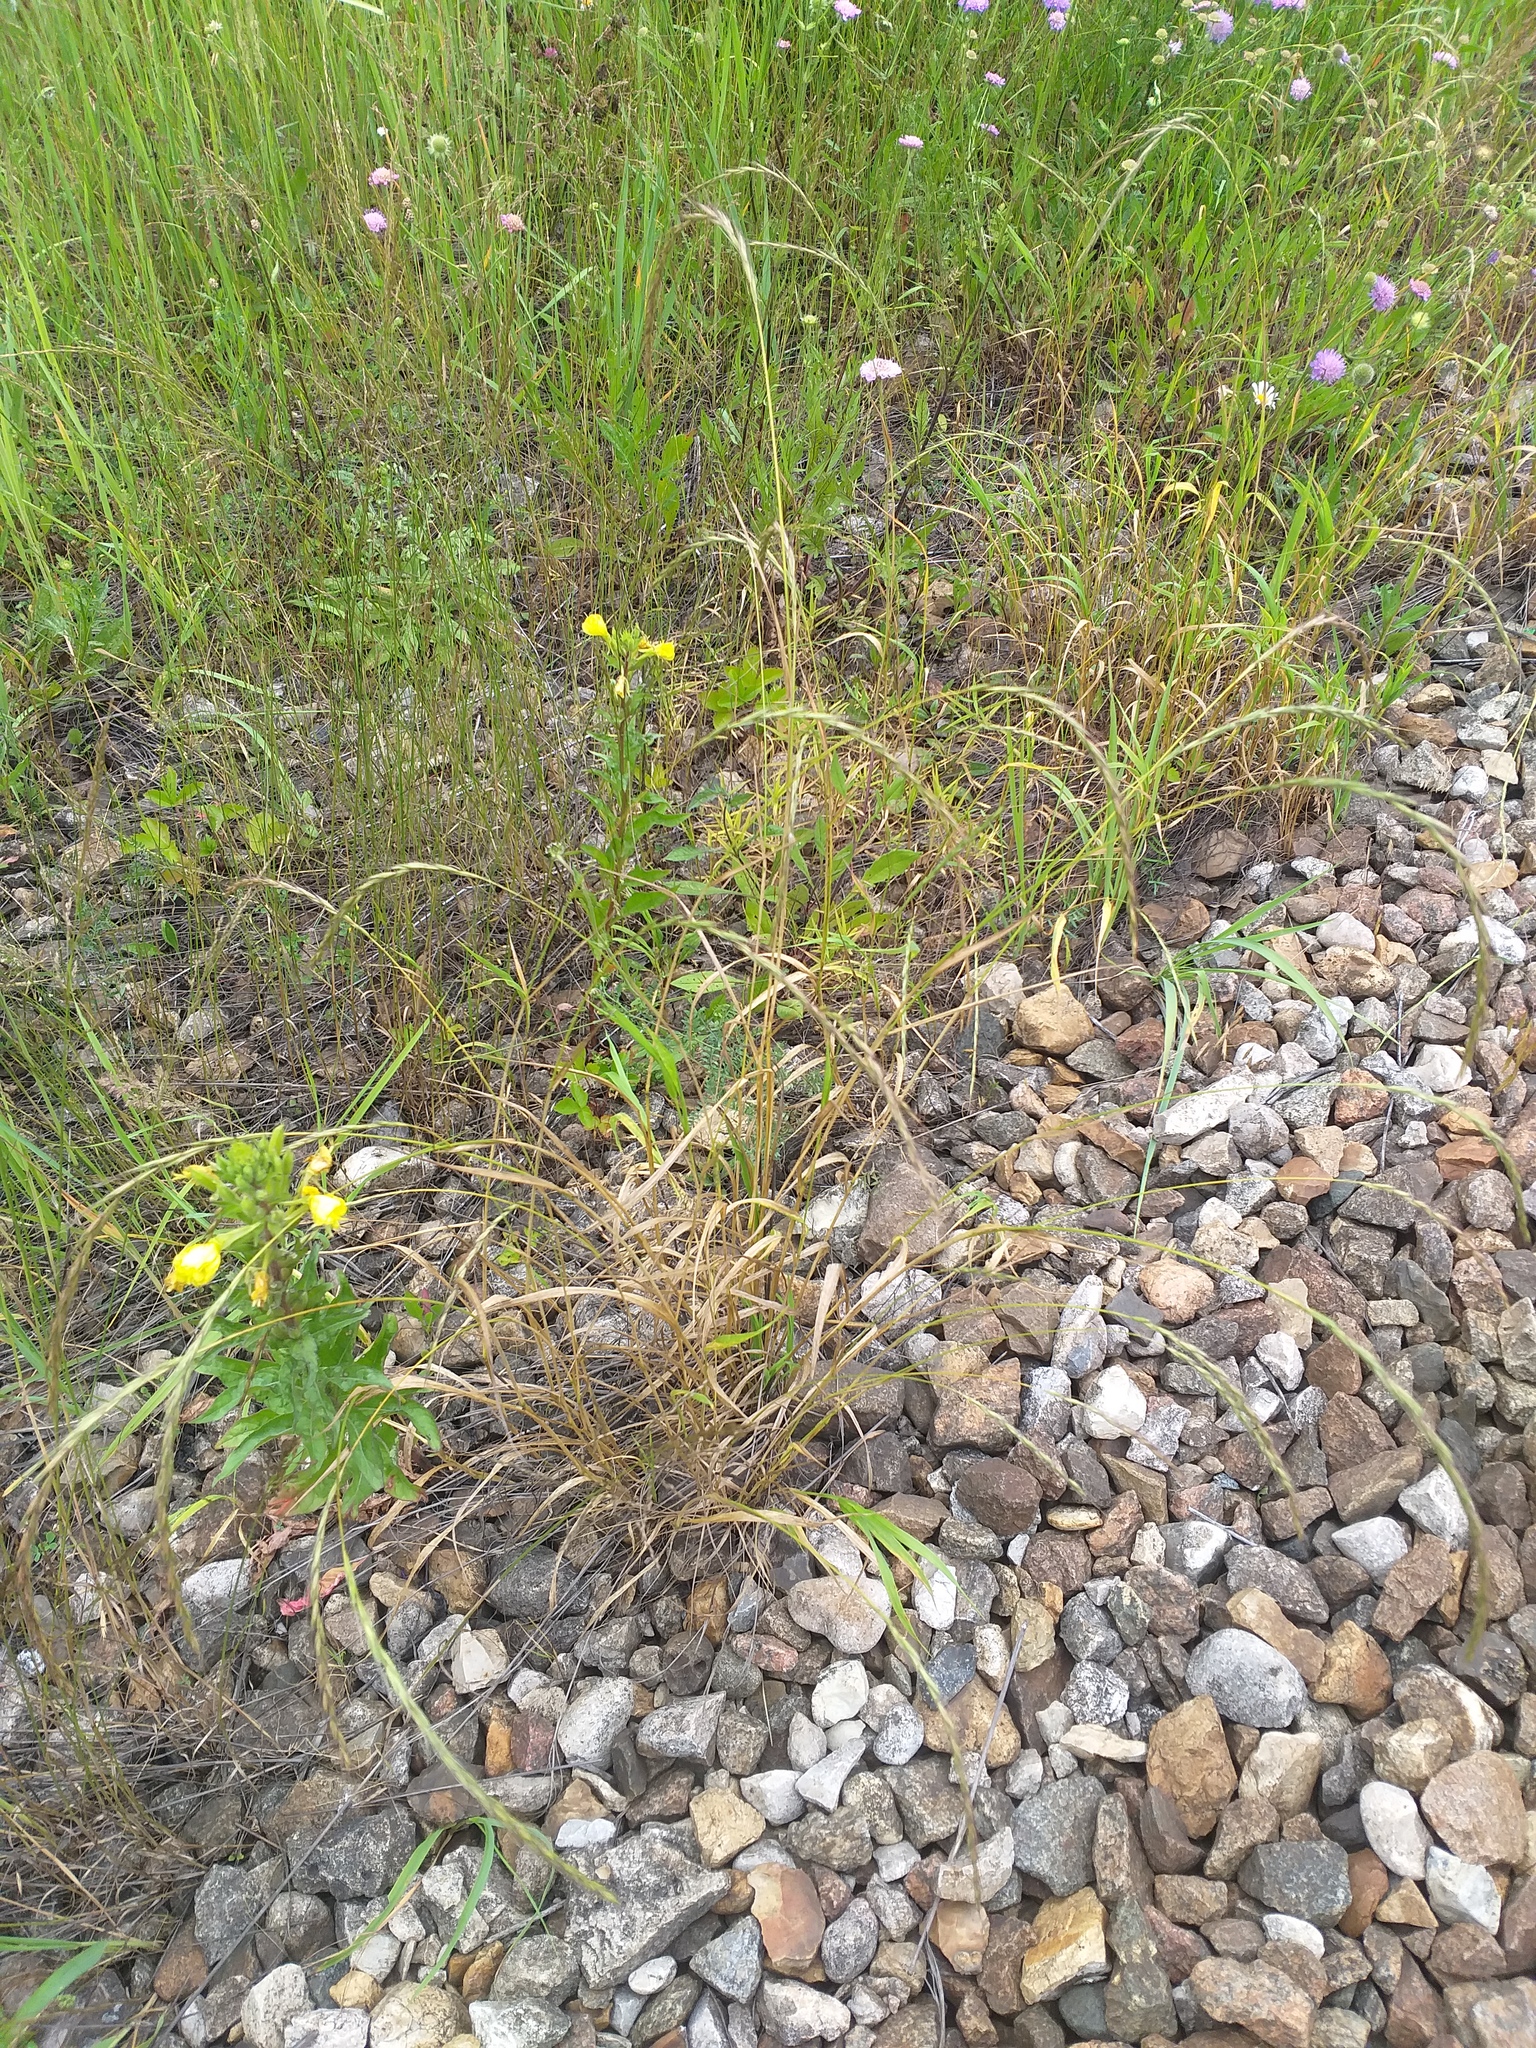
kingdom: Plantae
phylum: Tracheophyta
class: Liliopsida
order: Poales
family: Poaceae
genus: Elymus
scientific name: Elymus caninus
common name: Bearded couch
